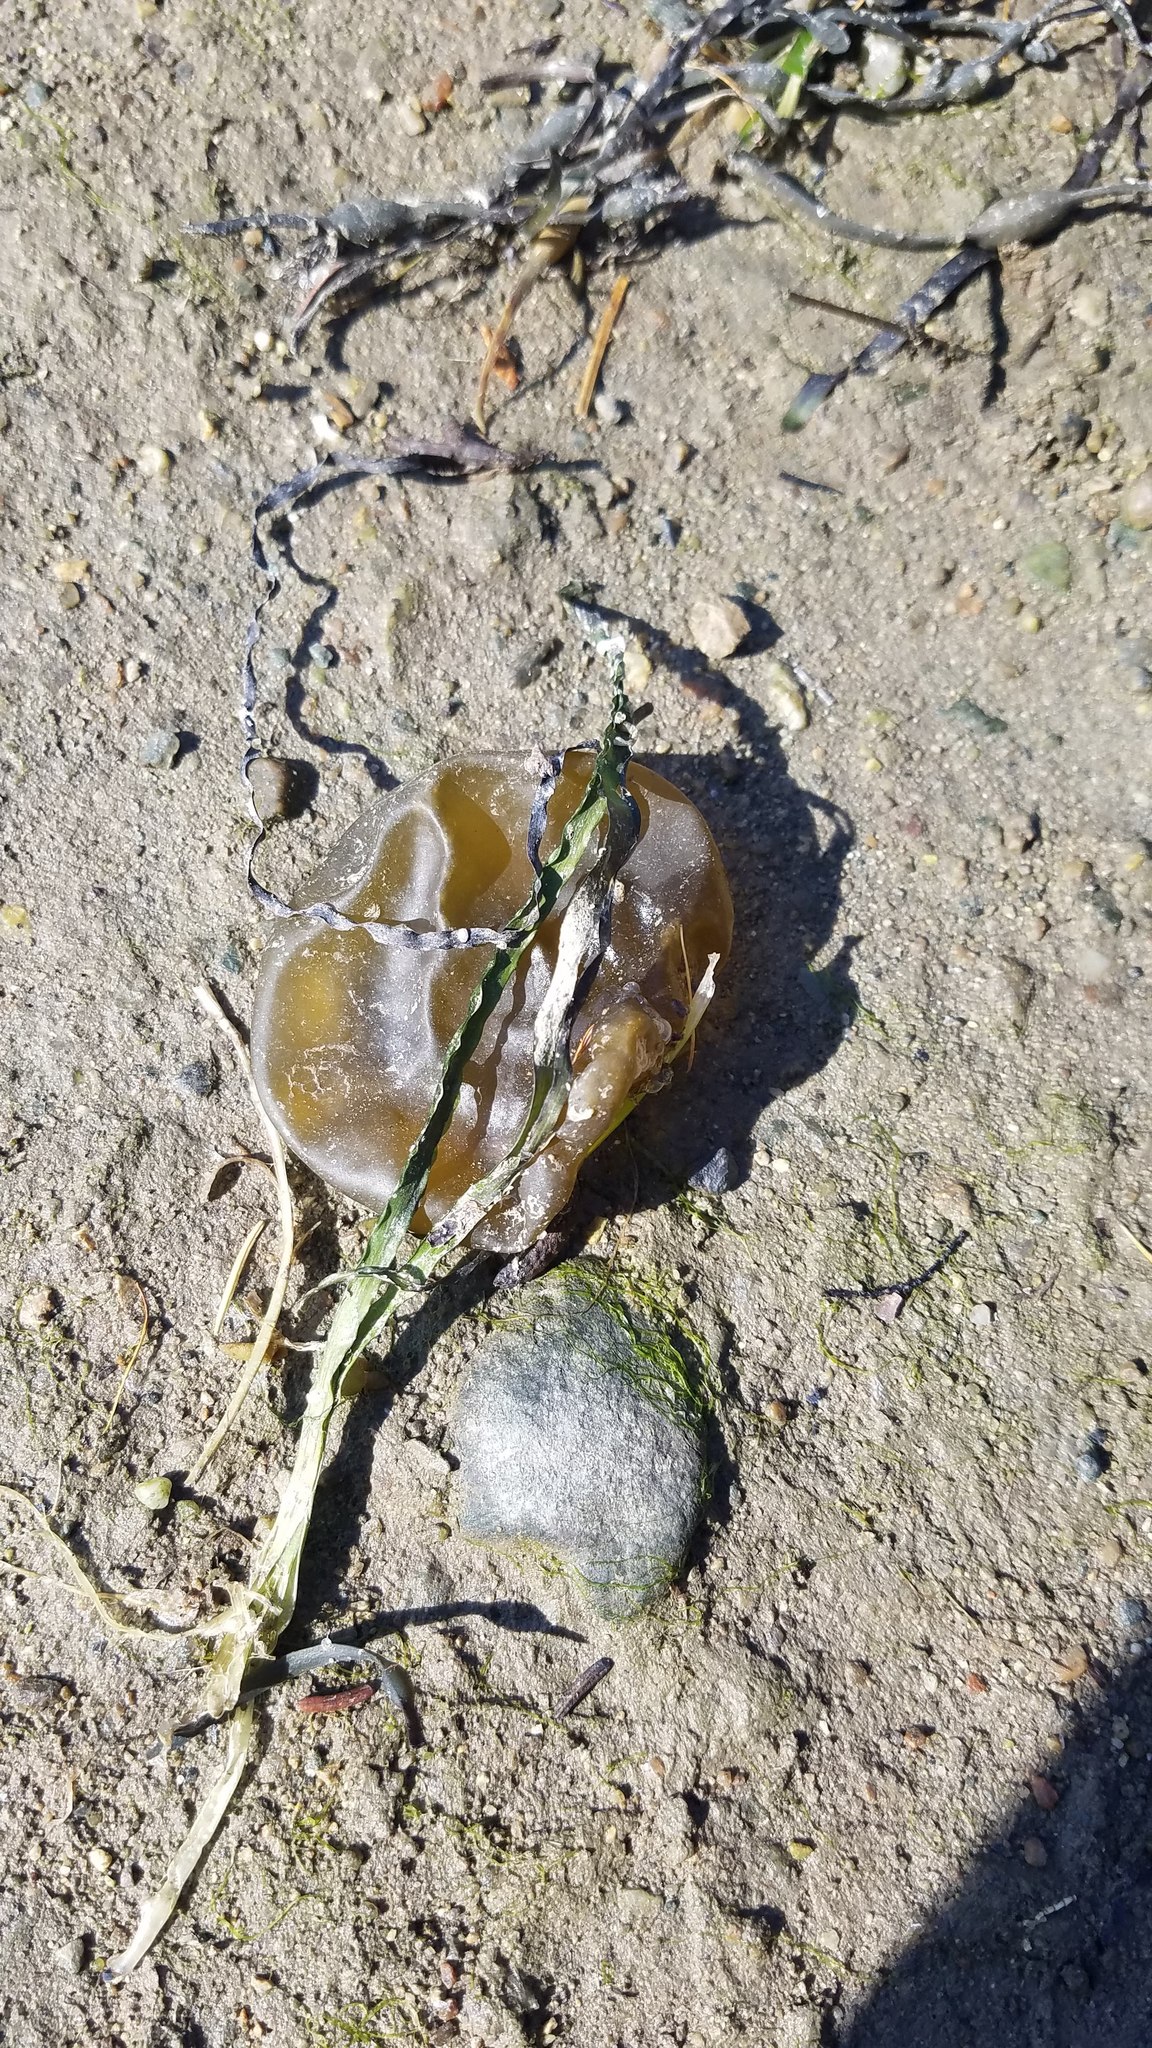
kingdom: Chromista
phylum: Ochrophyta
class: Phaeophyceae
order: Scytosiphonales
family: Scytosiphonaceae
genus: Colpomenia
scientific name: Colpomenia peregrina
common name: Oyster thief
